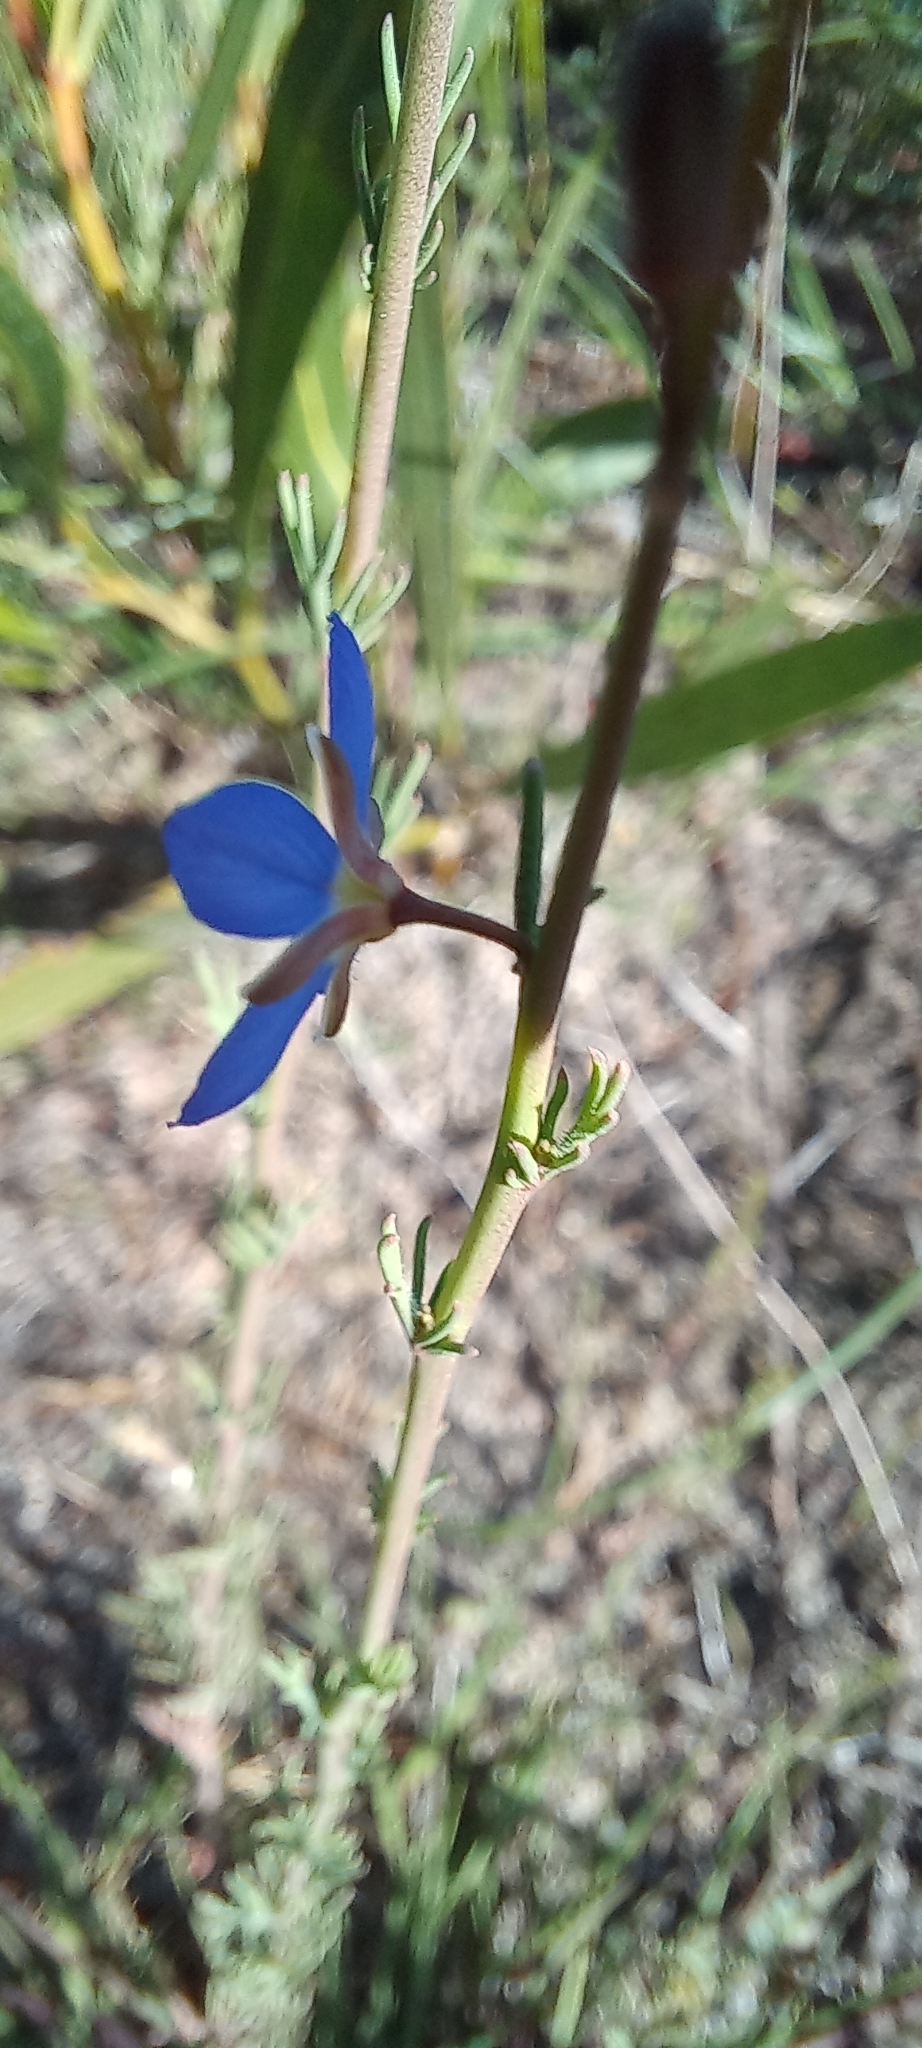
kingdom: Plantae
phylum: Tracheophyta
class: Magnoliopsida
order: Brassicales
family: Brassicaceae
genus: Heliophila
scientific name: Heliophila digitata
